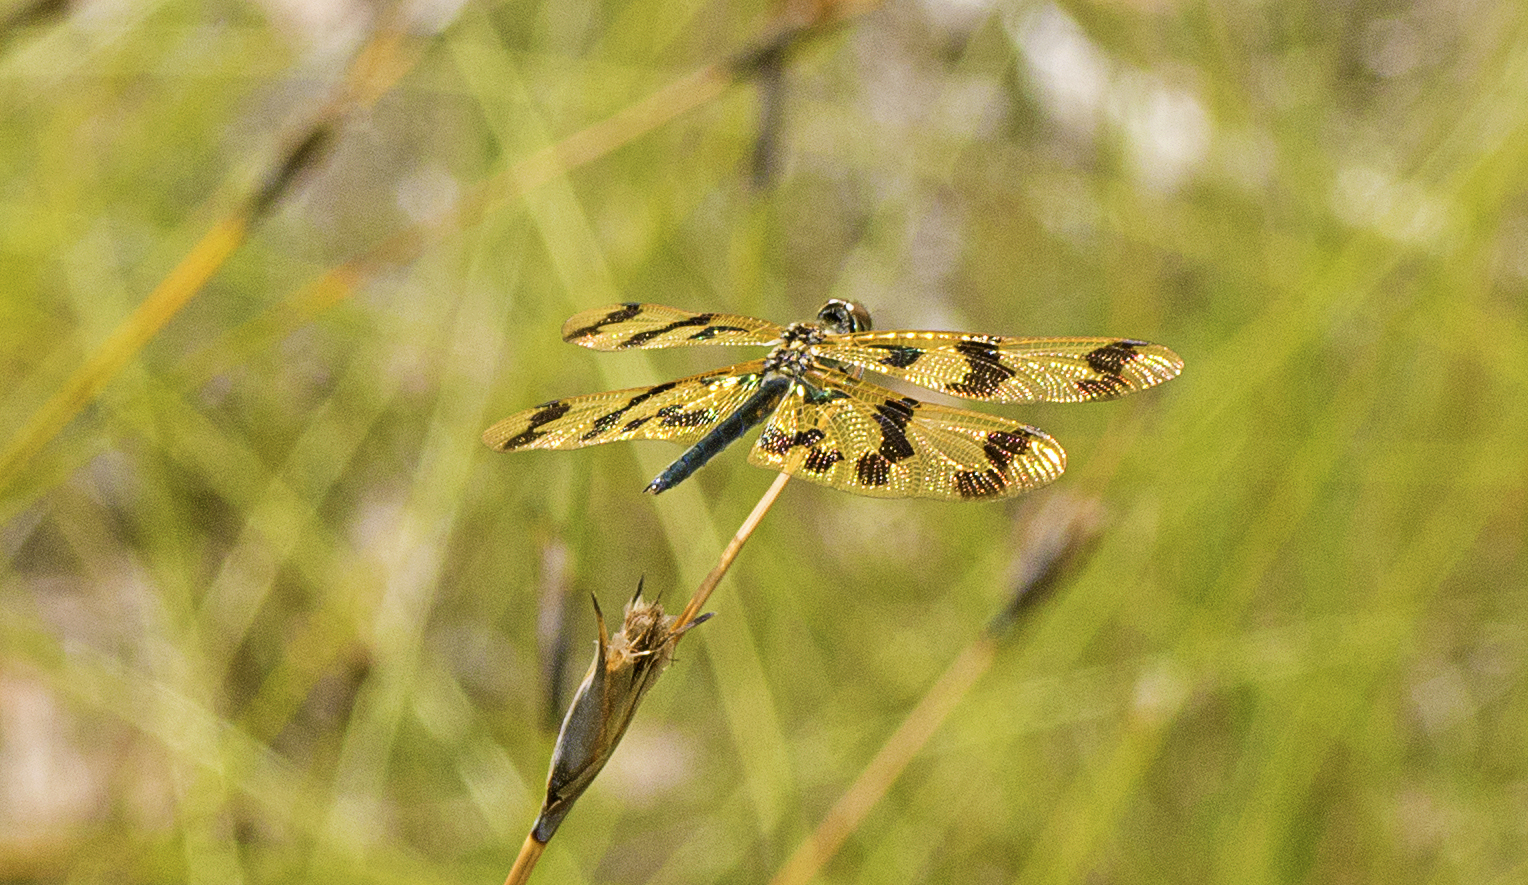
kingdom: Animalia
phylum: Arthropoda
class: Insecta
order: Odonata
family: Libellulidae
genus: Rhyothemis
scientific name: Rhyothemis graphiptera
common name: Graphic flutterer
